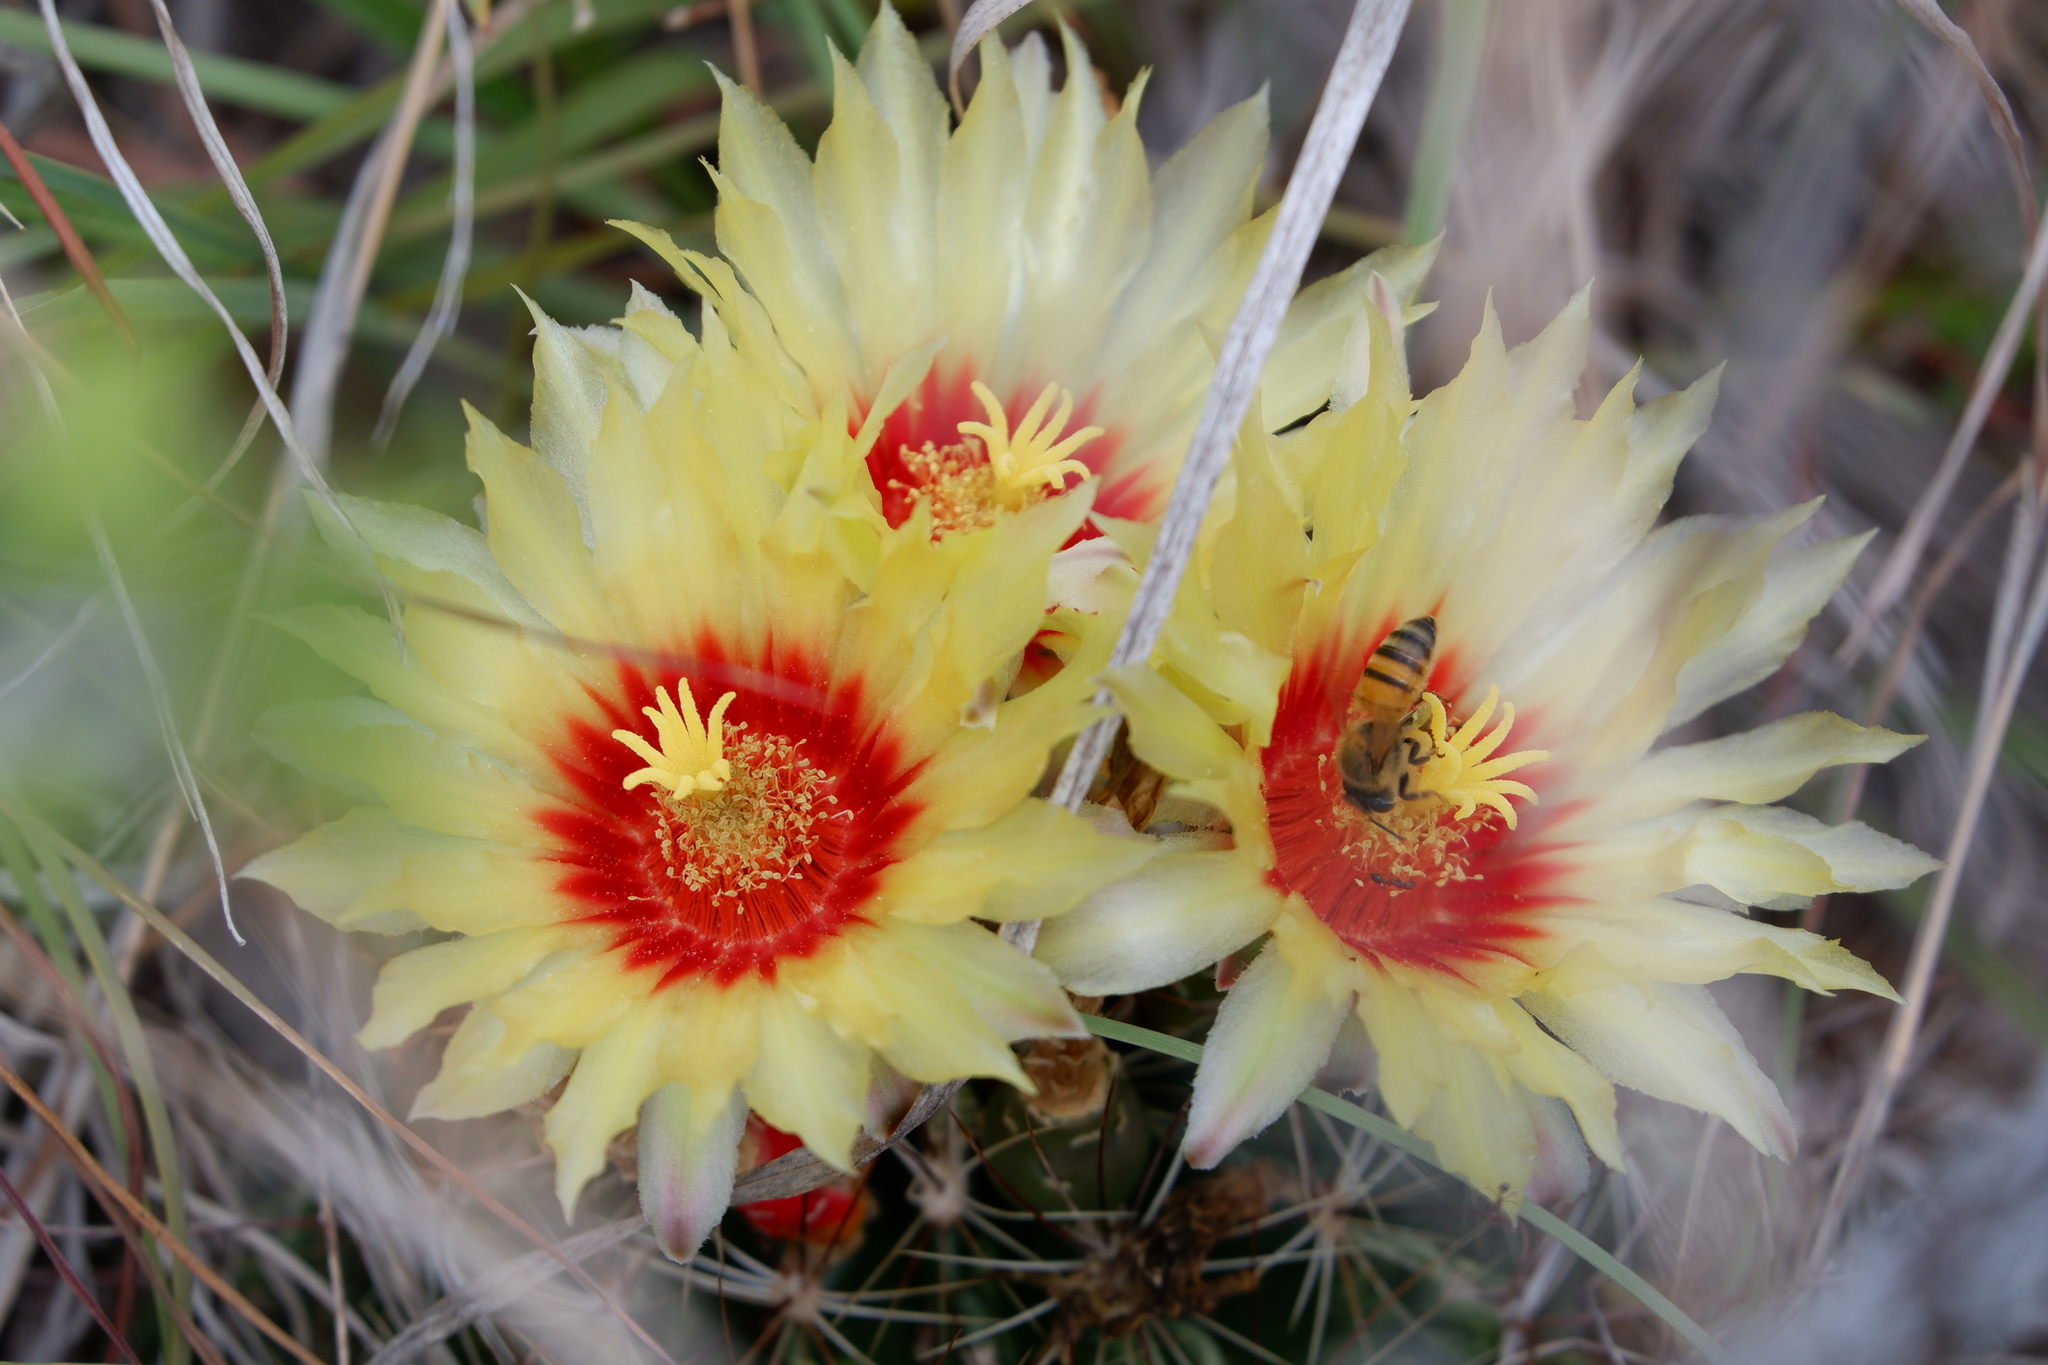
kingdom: Animalia
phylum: Arthropoda
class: Insecta
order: Hymenoptera
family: Apidae
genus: Apis
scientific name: Apis mellifera
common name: Honey bee
